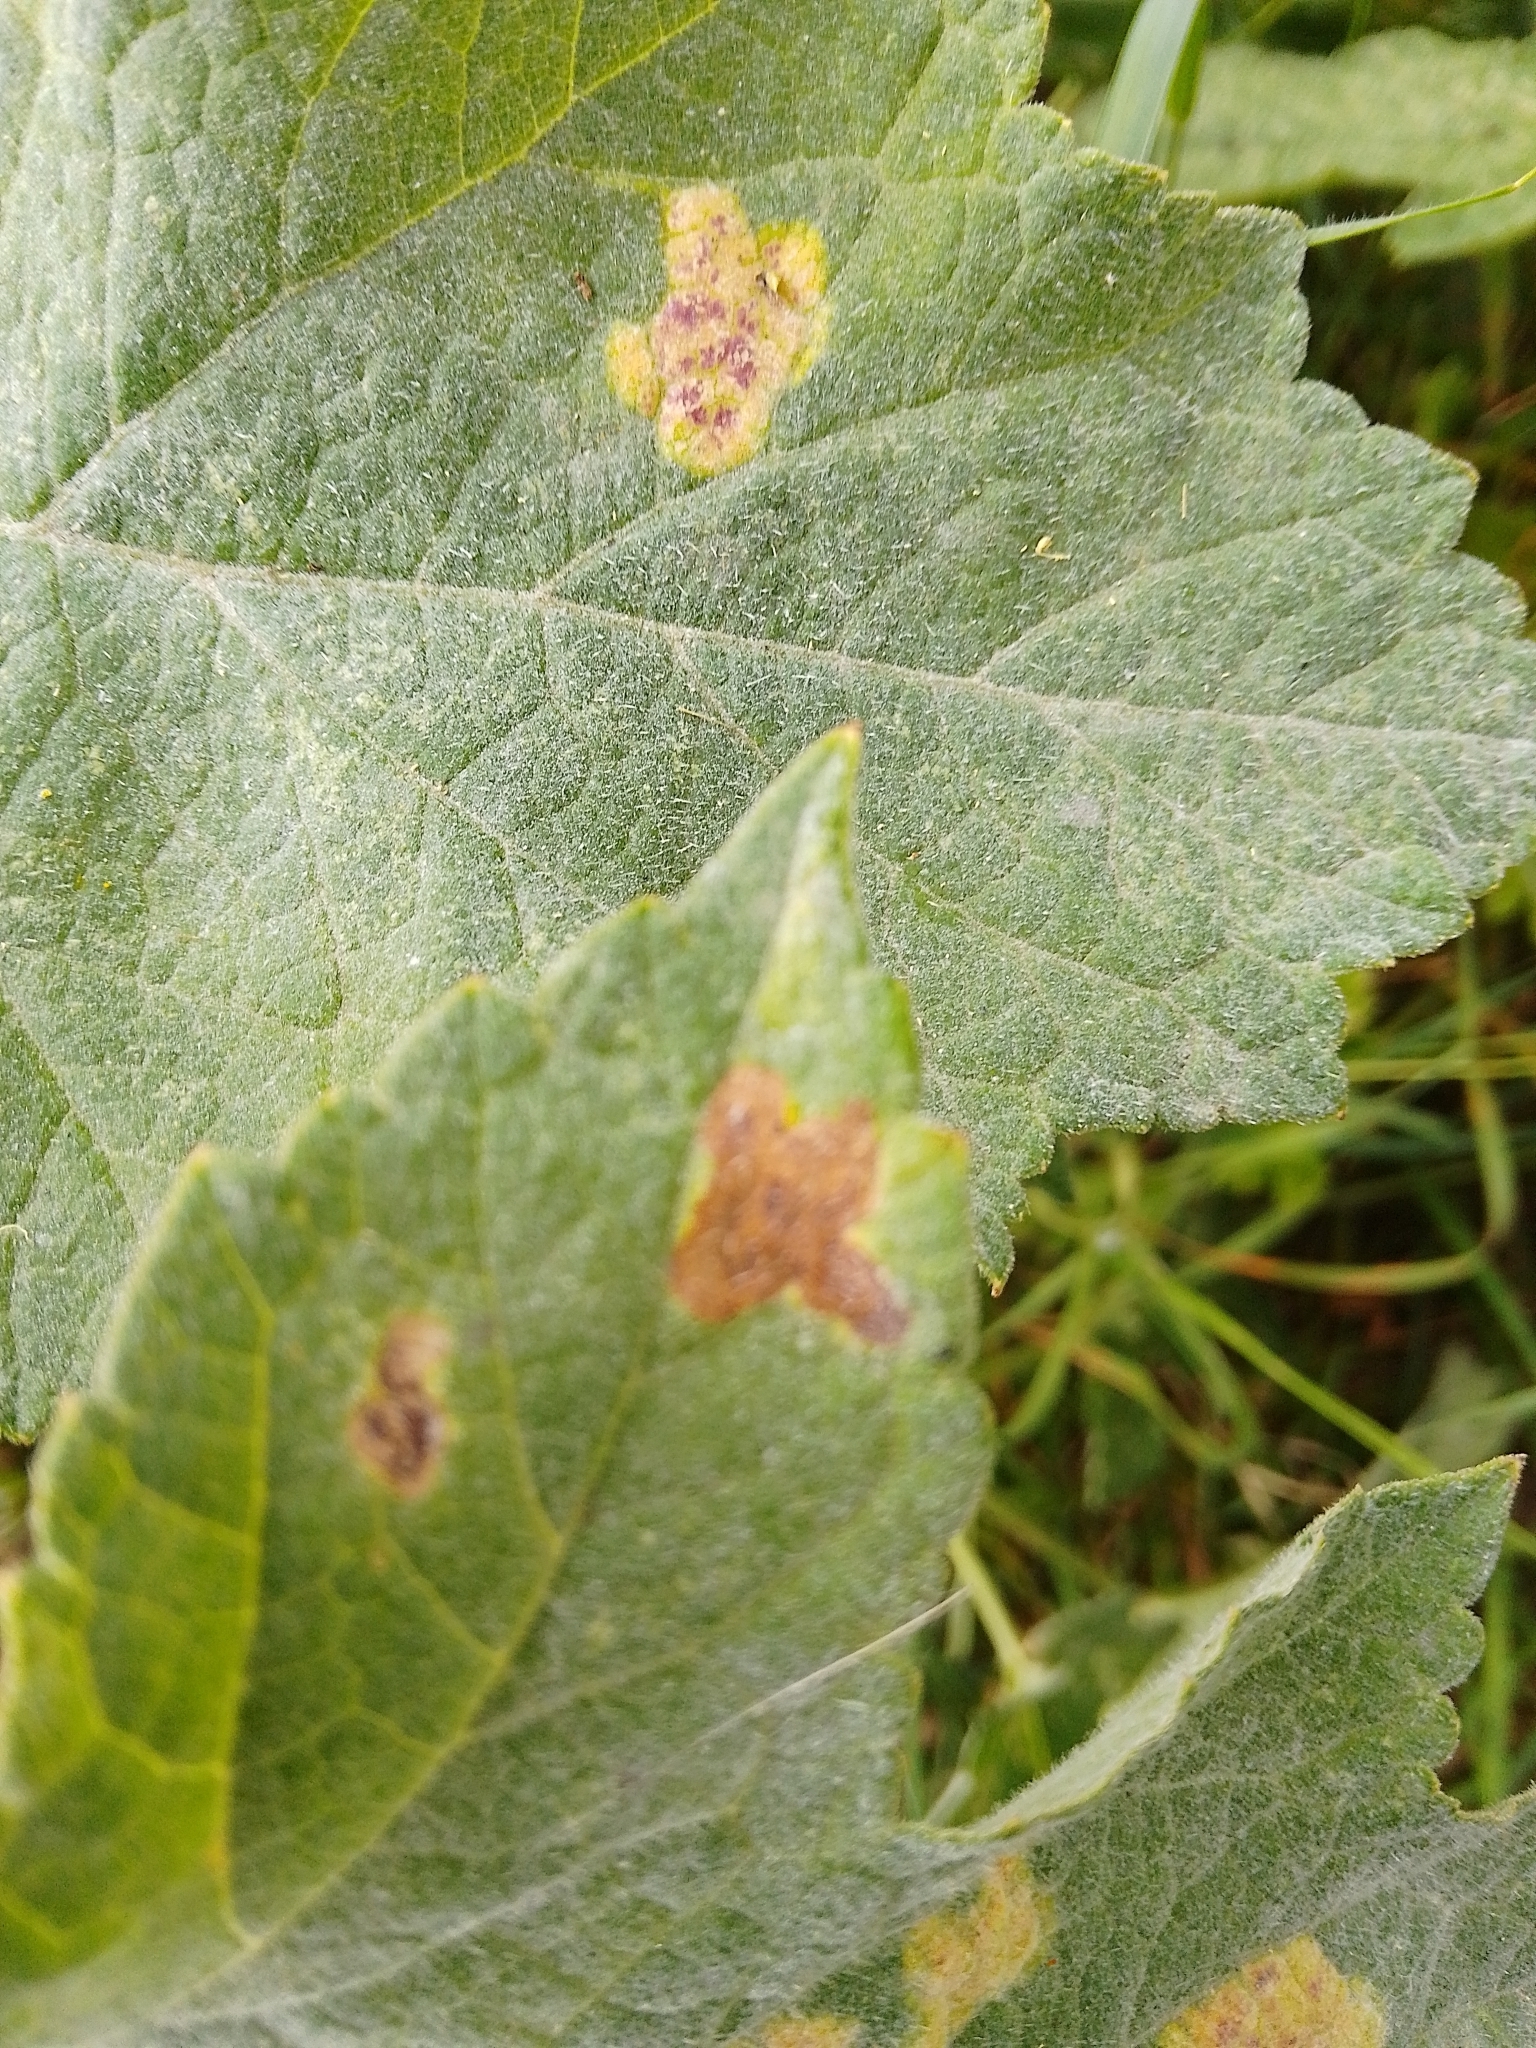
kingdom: Animalia
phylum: Arthropoda
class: Insecta
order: Diptera
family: Agromyzidae
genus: Phytomyza
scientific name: Phytomyza heracleana
